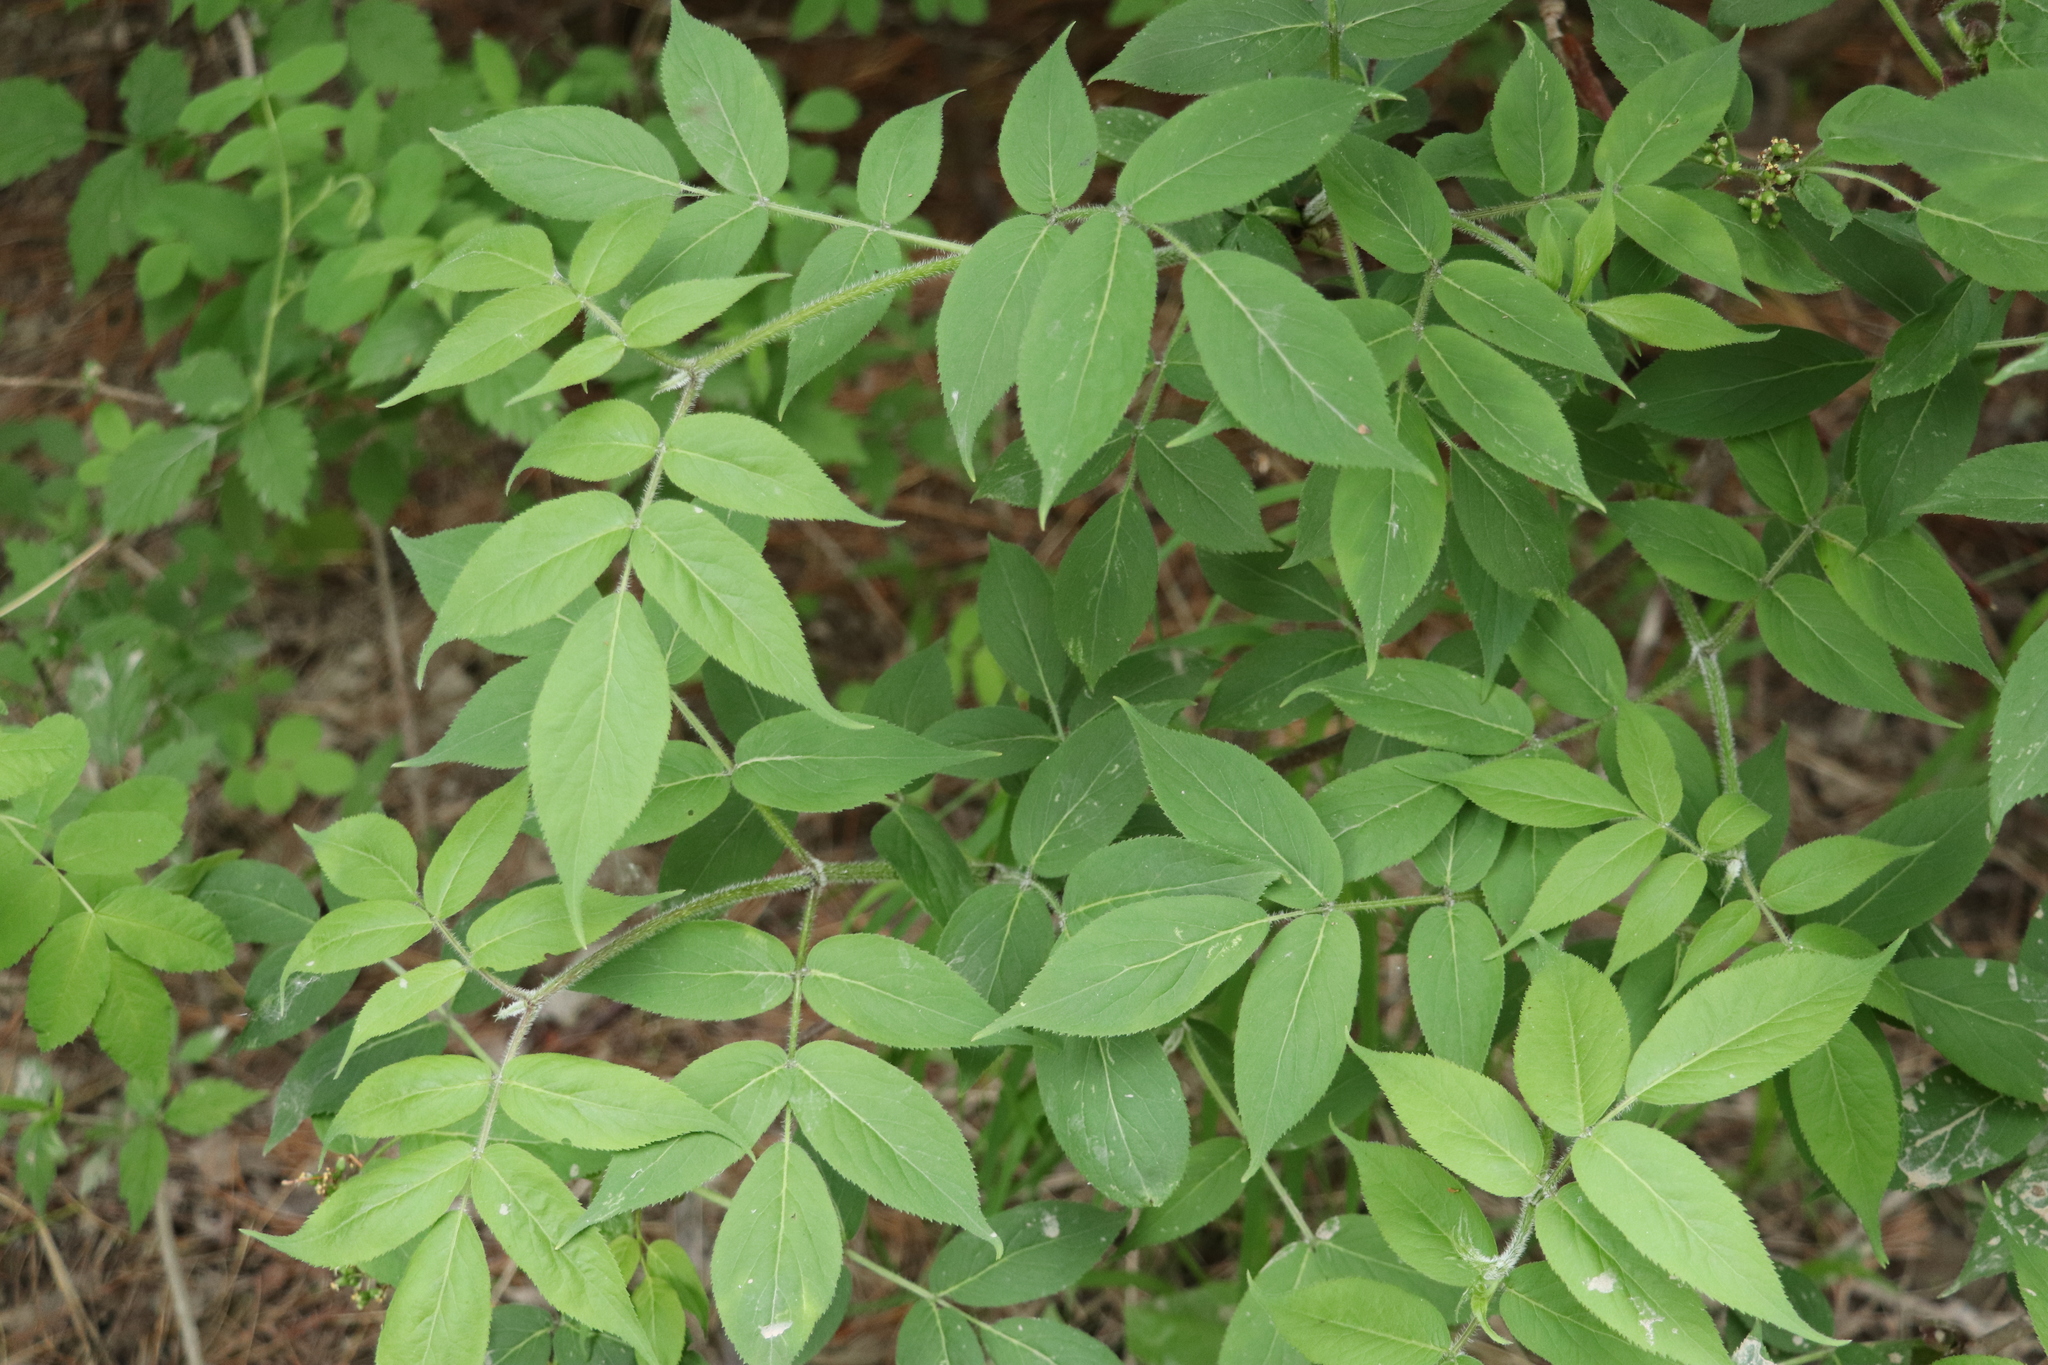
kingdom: Plantae
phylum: Tracheophyta
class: Magnoliopsida
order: Dipsacales
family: Viburnaceae
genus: Sambucus
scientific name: Sambucus sibirica
